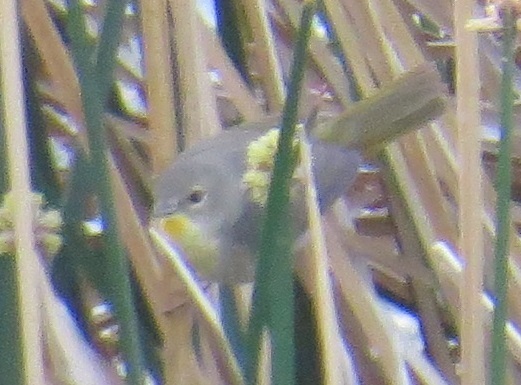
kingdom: Animalia
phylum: Chordata
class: Aves
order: Passeriformes
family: Parulidae
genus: Geothlypis
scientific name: Geothlypis trichas
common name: Common yellowthroat
